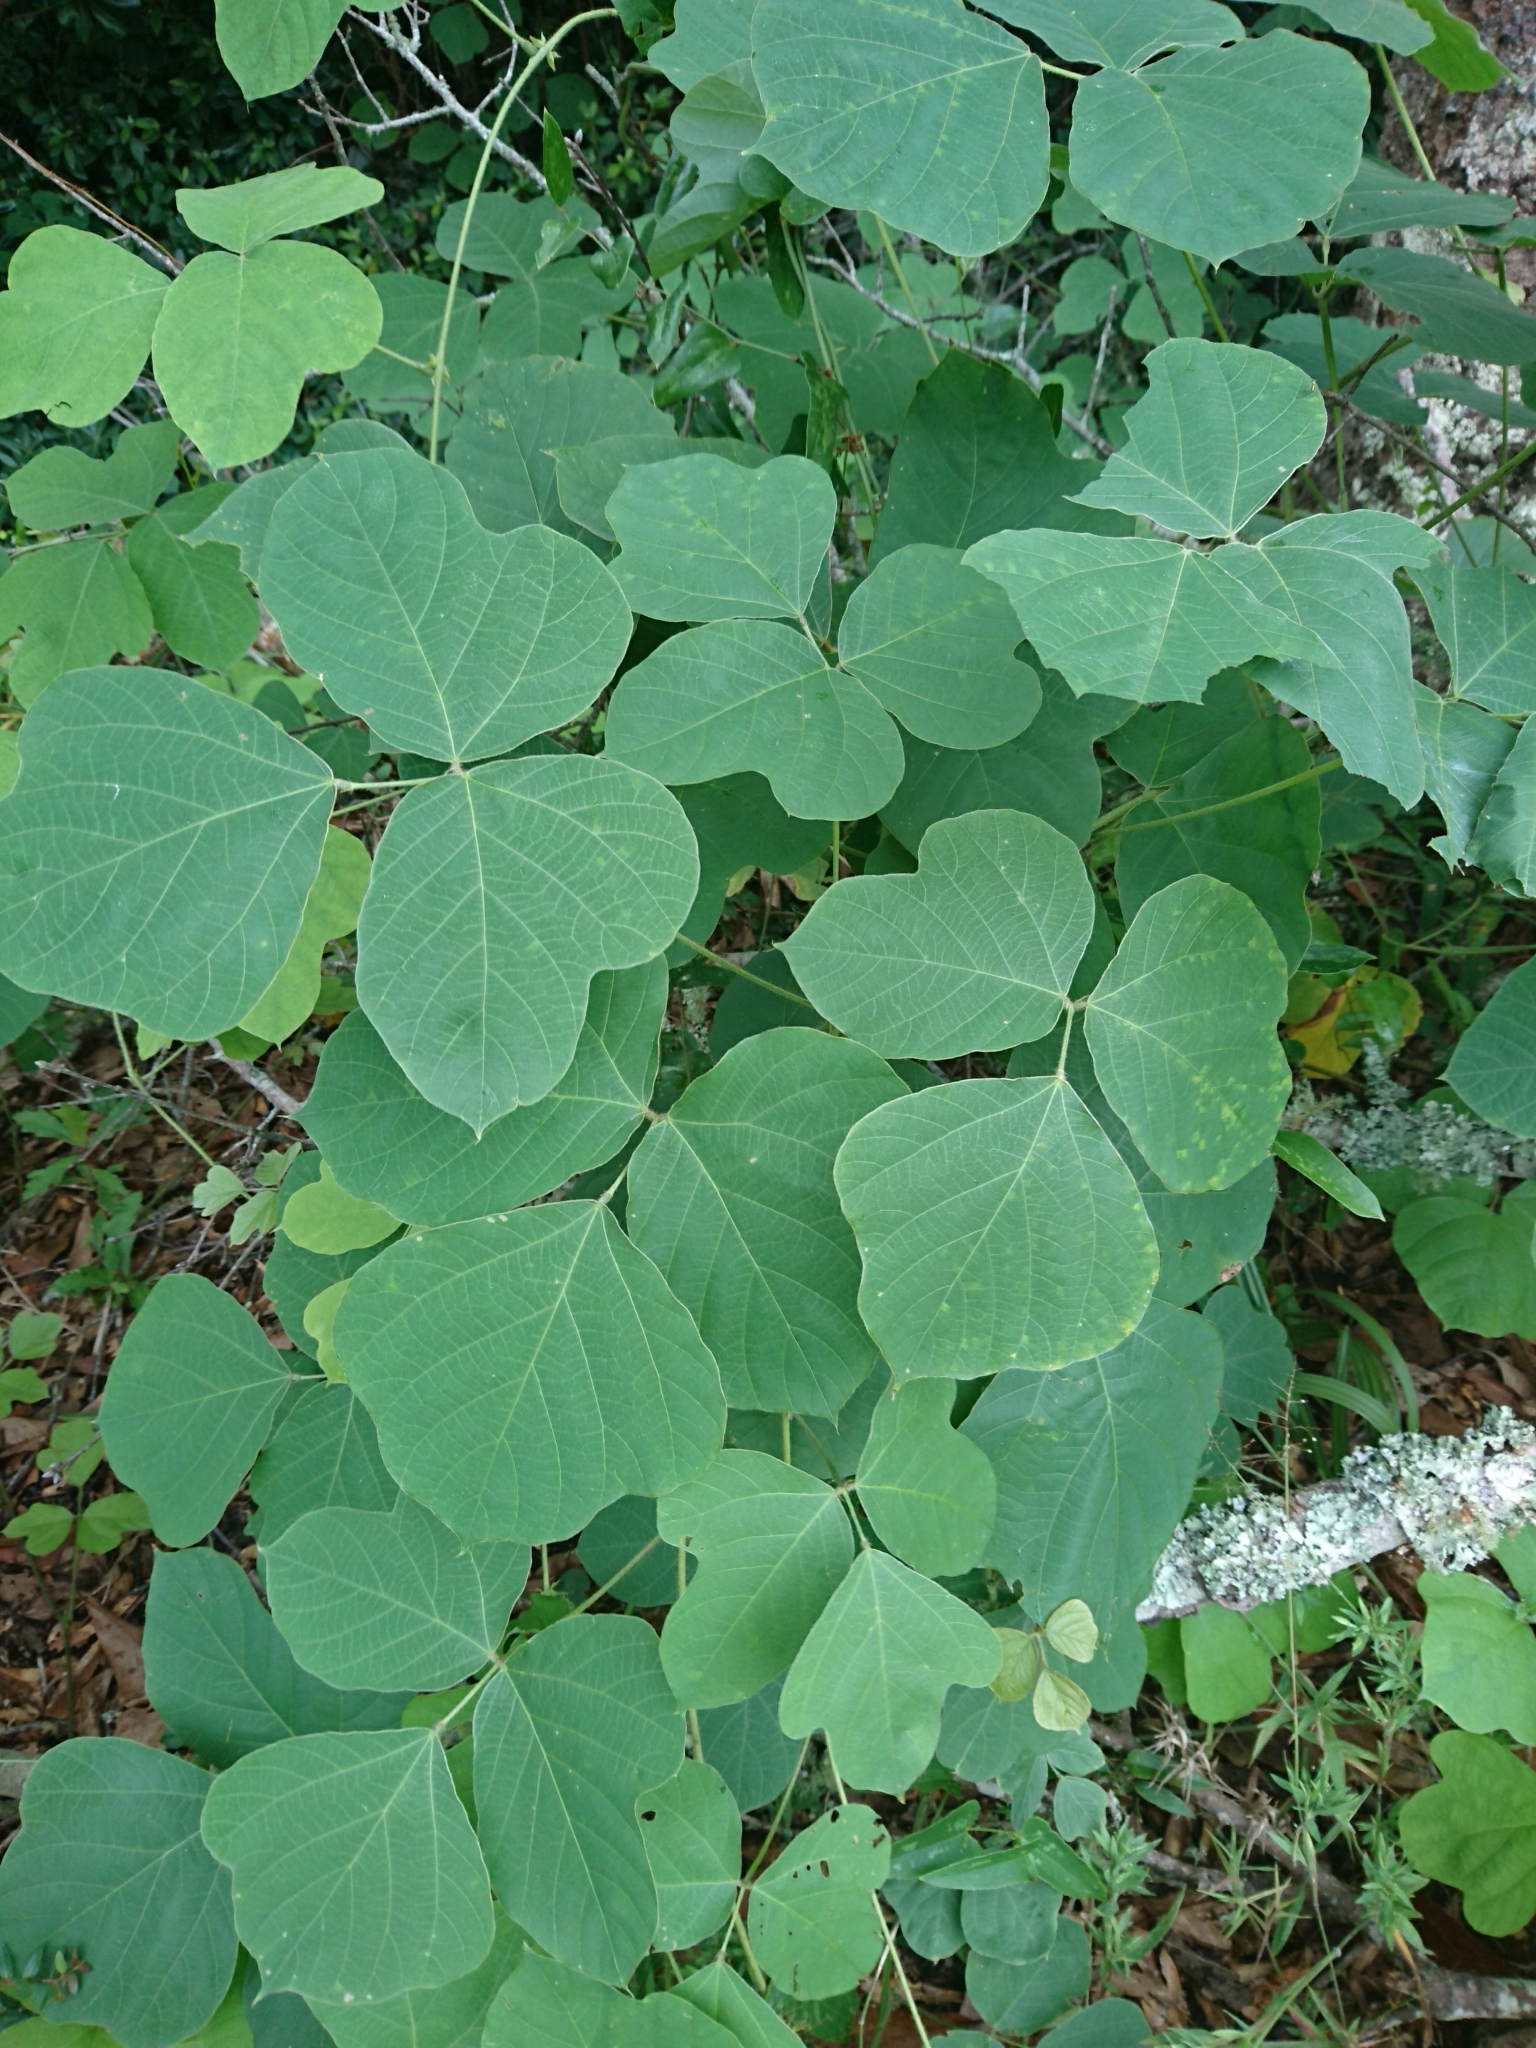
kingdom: Plantae
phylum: Tracheophyta
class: Magnoliopsida
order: Fabales
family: Fabaceae
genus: Pueraria
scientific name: Pueraria montana
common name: Kudzu
